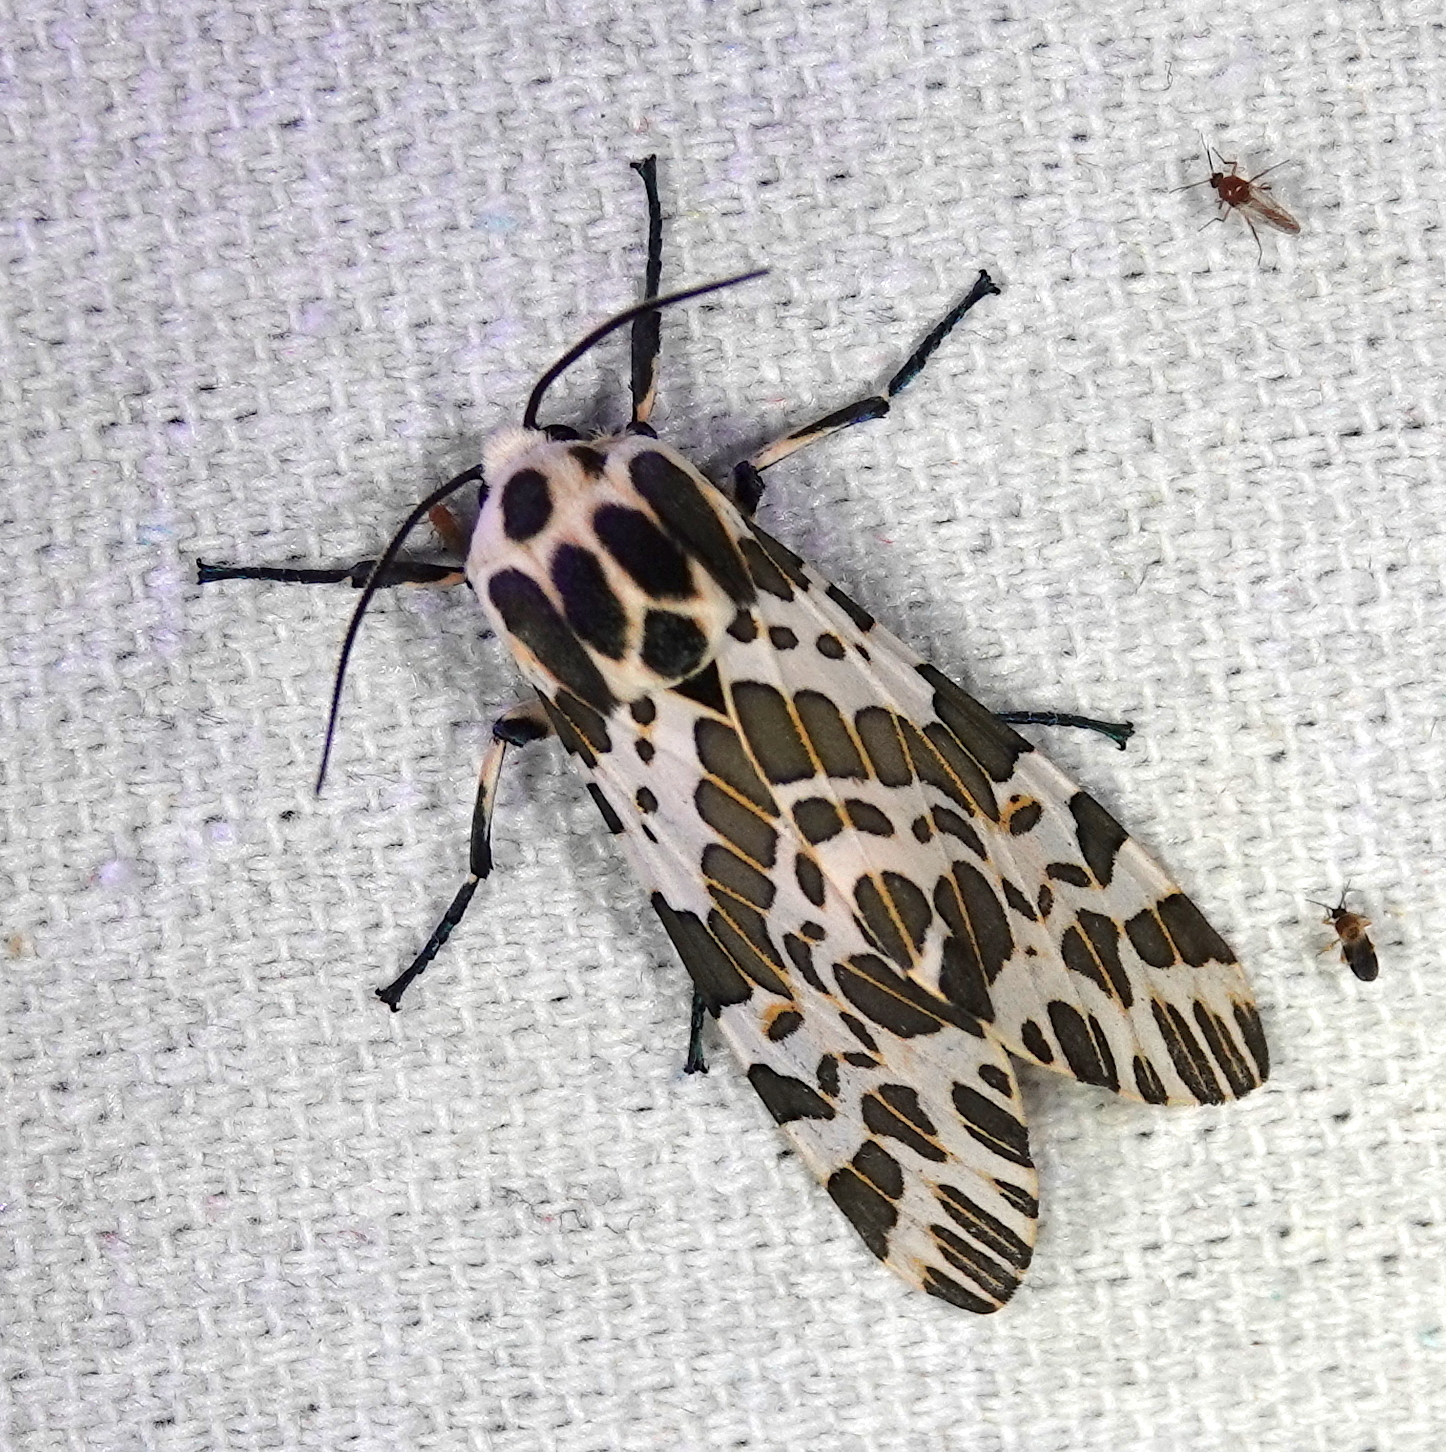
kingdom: Animalia
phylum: Arthropoda
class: Insecta
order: Lepidoptera
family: Erebidae
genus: Hypercompe
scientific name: Hypercompe laeta
